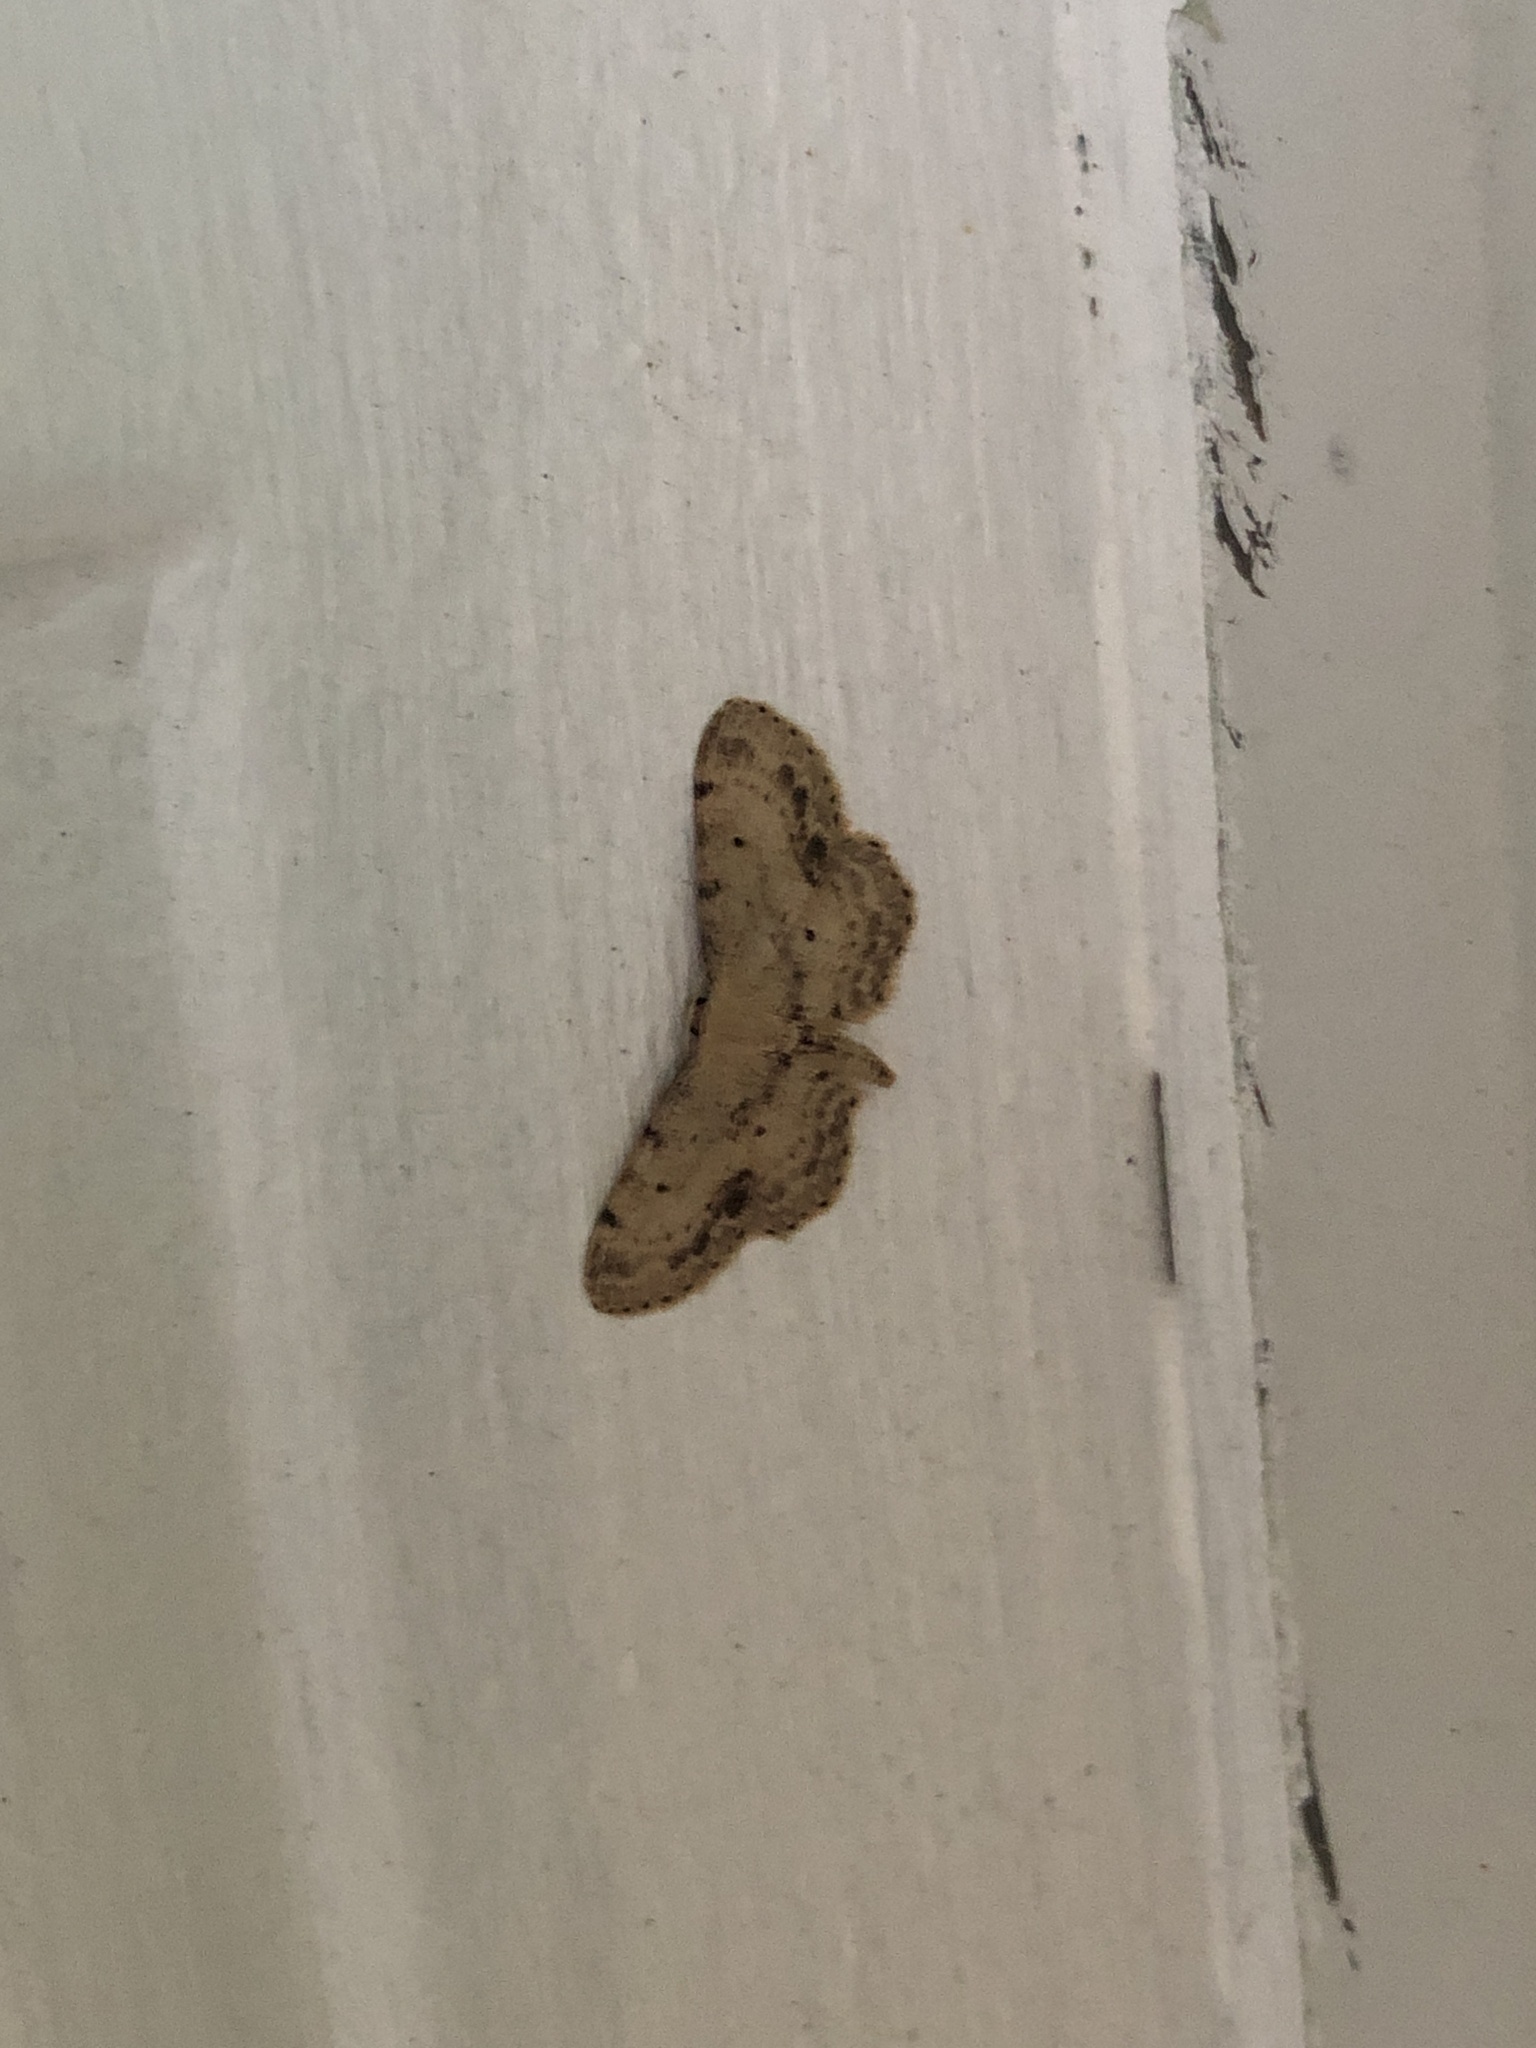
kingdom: Animalia
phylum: Arthropoda
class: Insecta
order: Lepidoptera
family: Geometridae
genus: Idaea
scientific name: Idaea dimidiata
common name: Single-dotted wave
